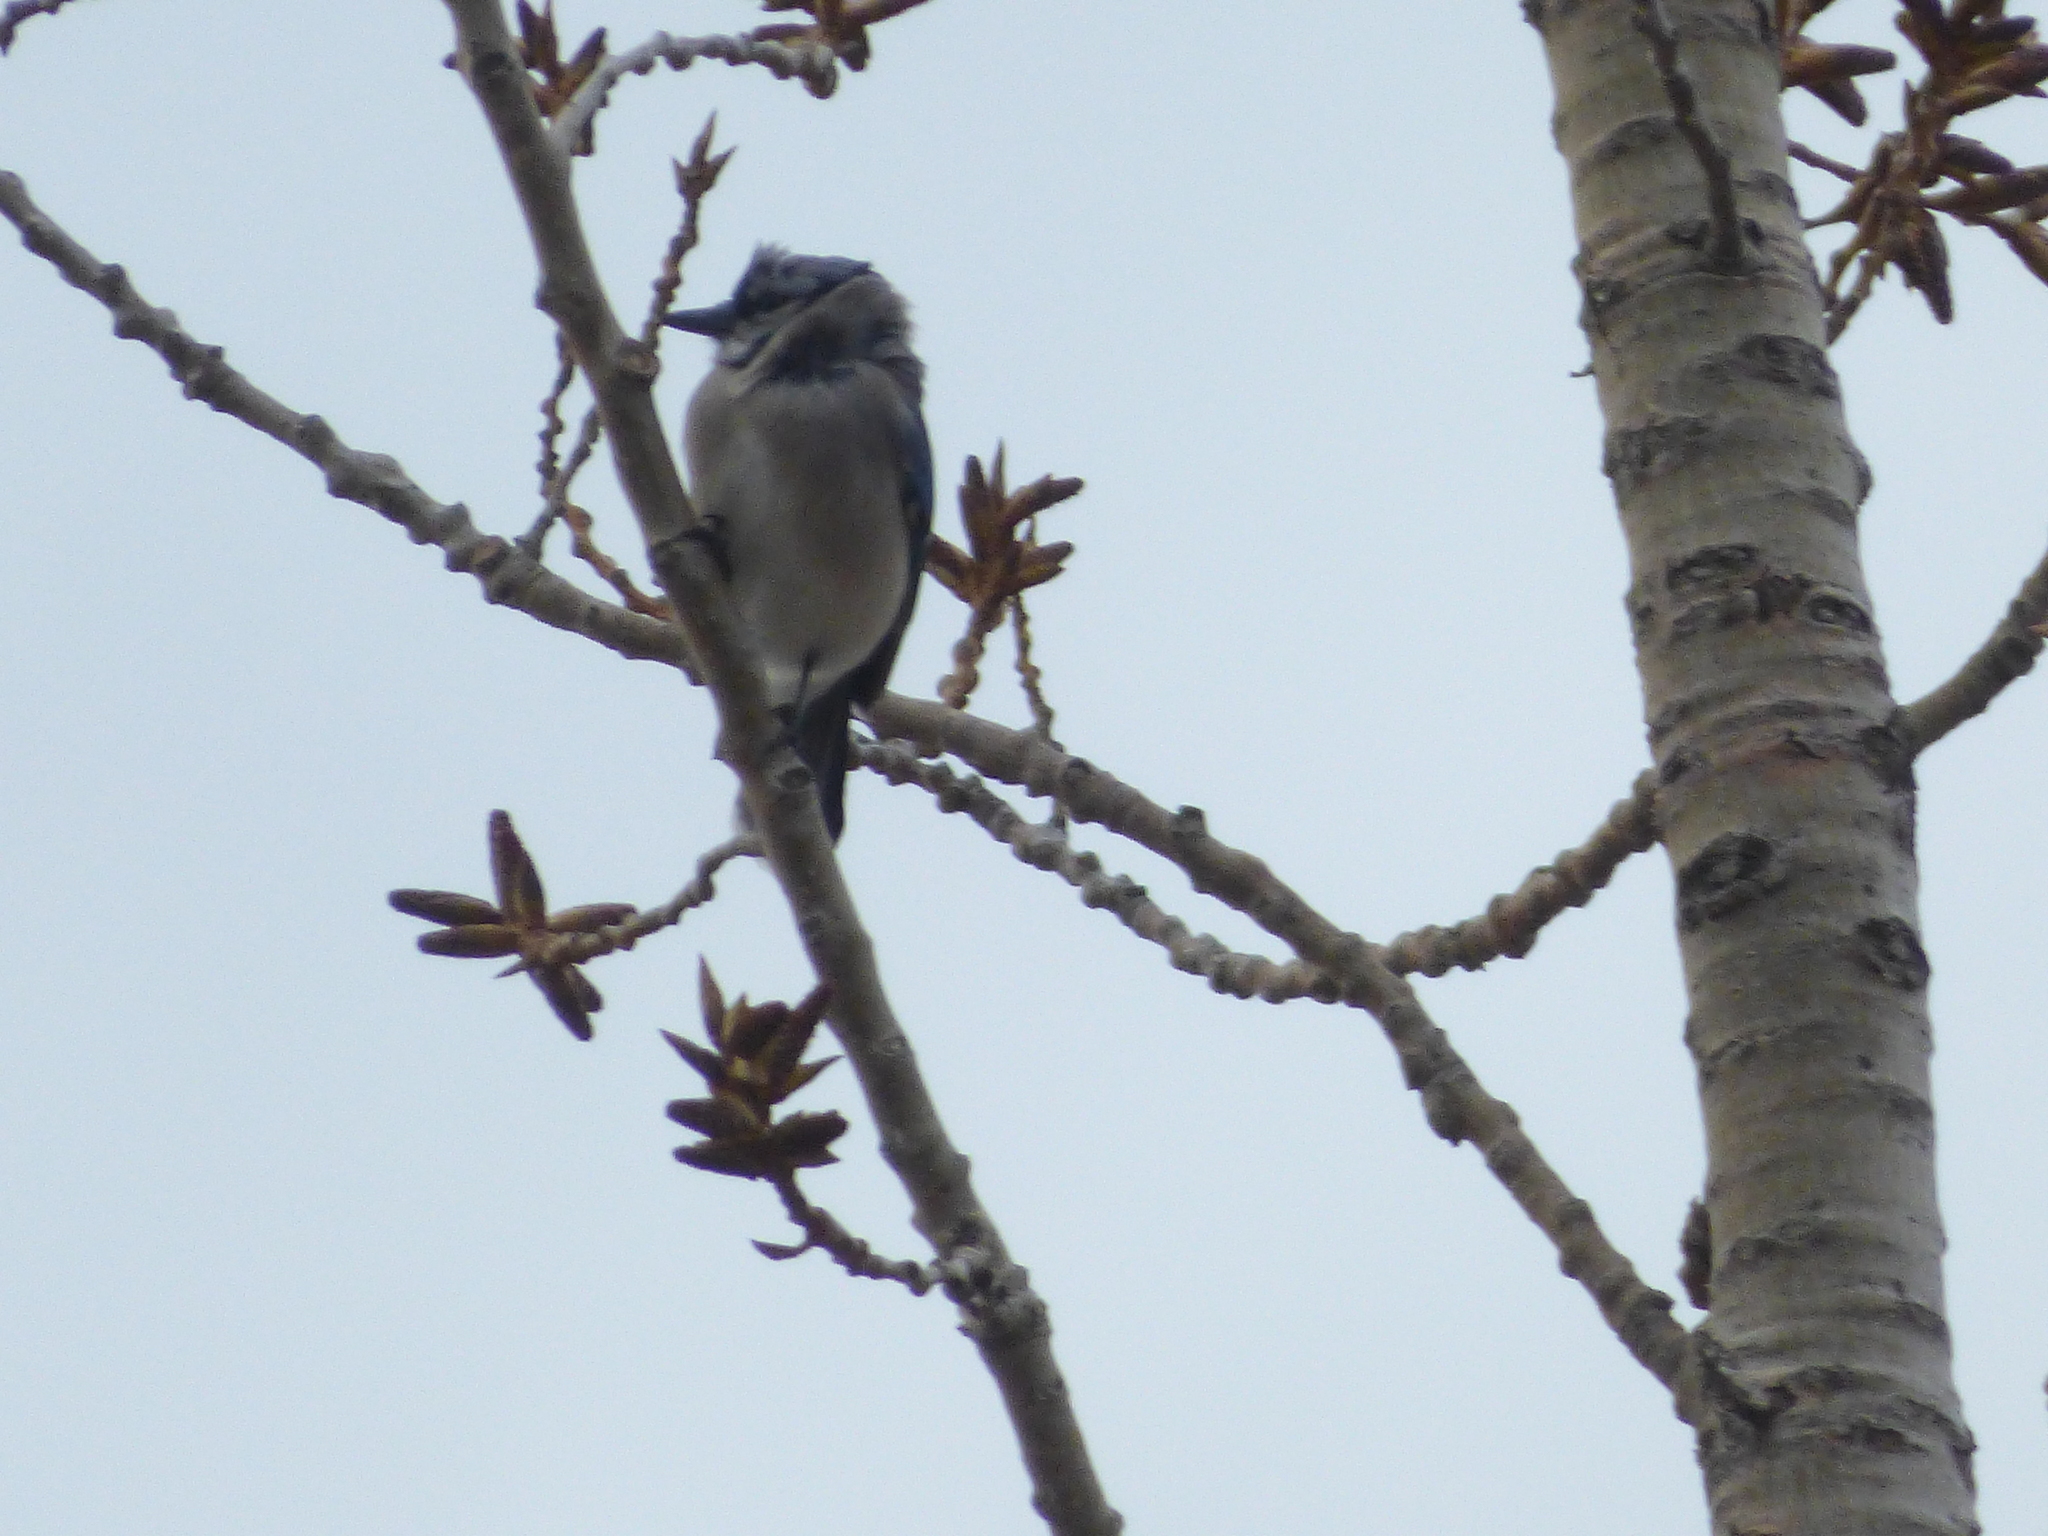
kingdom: Animalia
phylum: Chordata
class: Aves
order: Passeriformes
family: Corvidae
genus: Cyanocitta
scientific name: Cyanocitta cristata
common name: Blue jay
